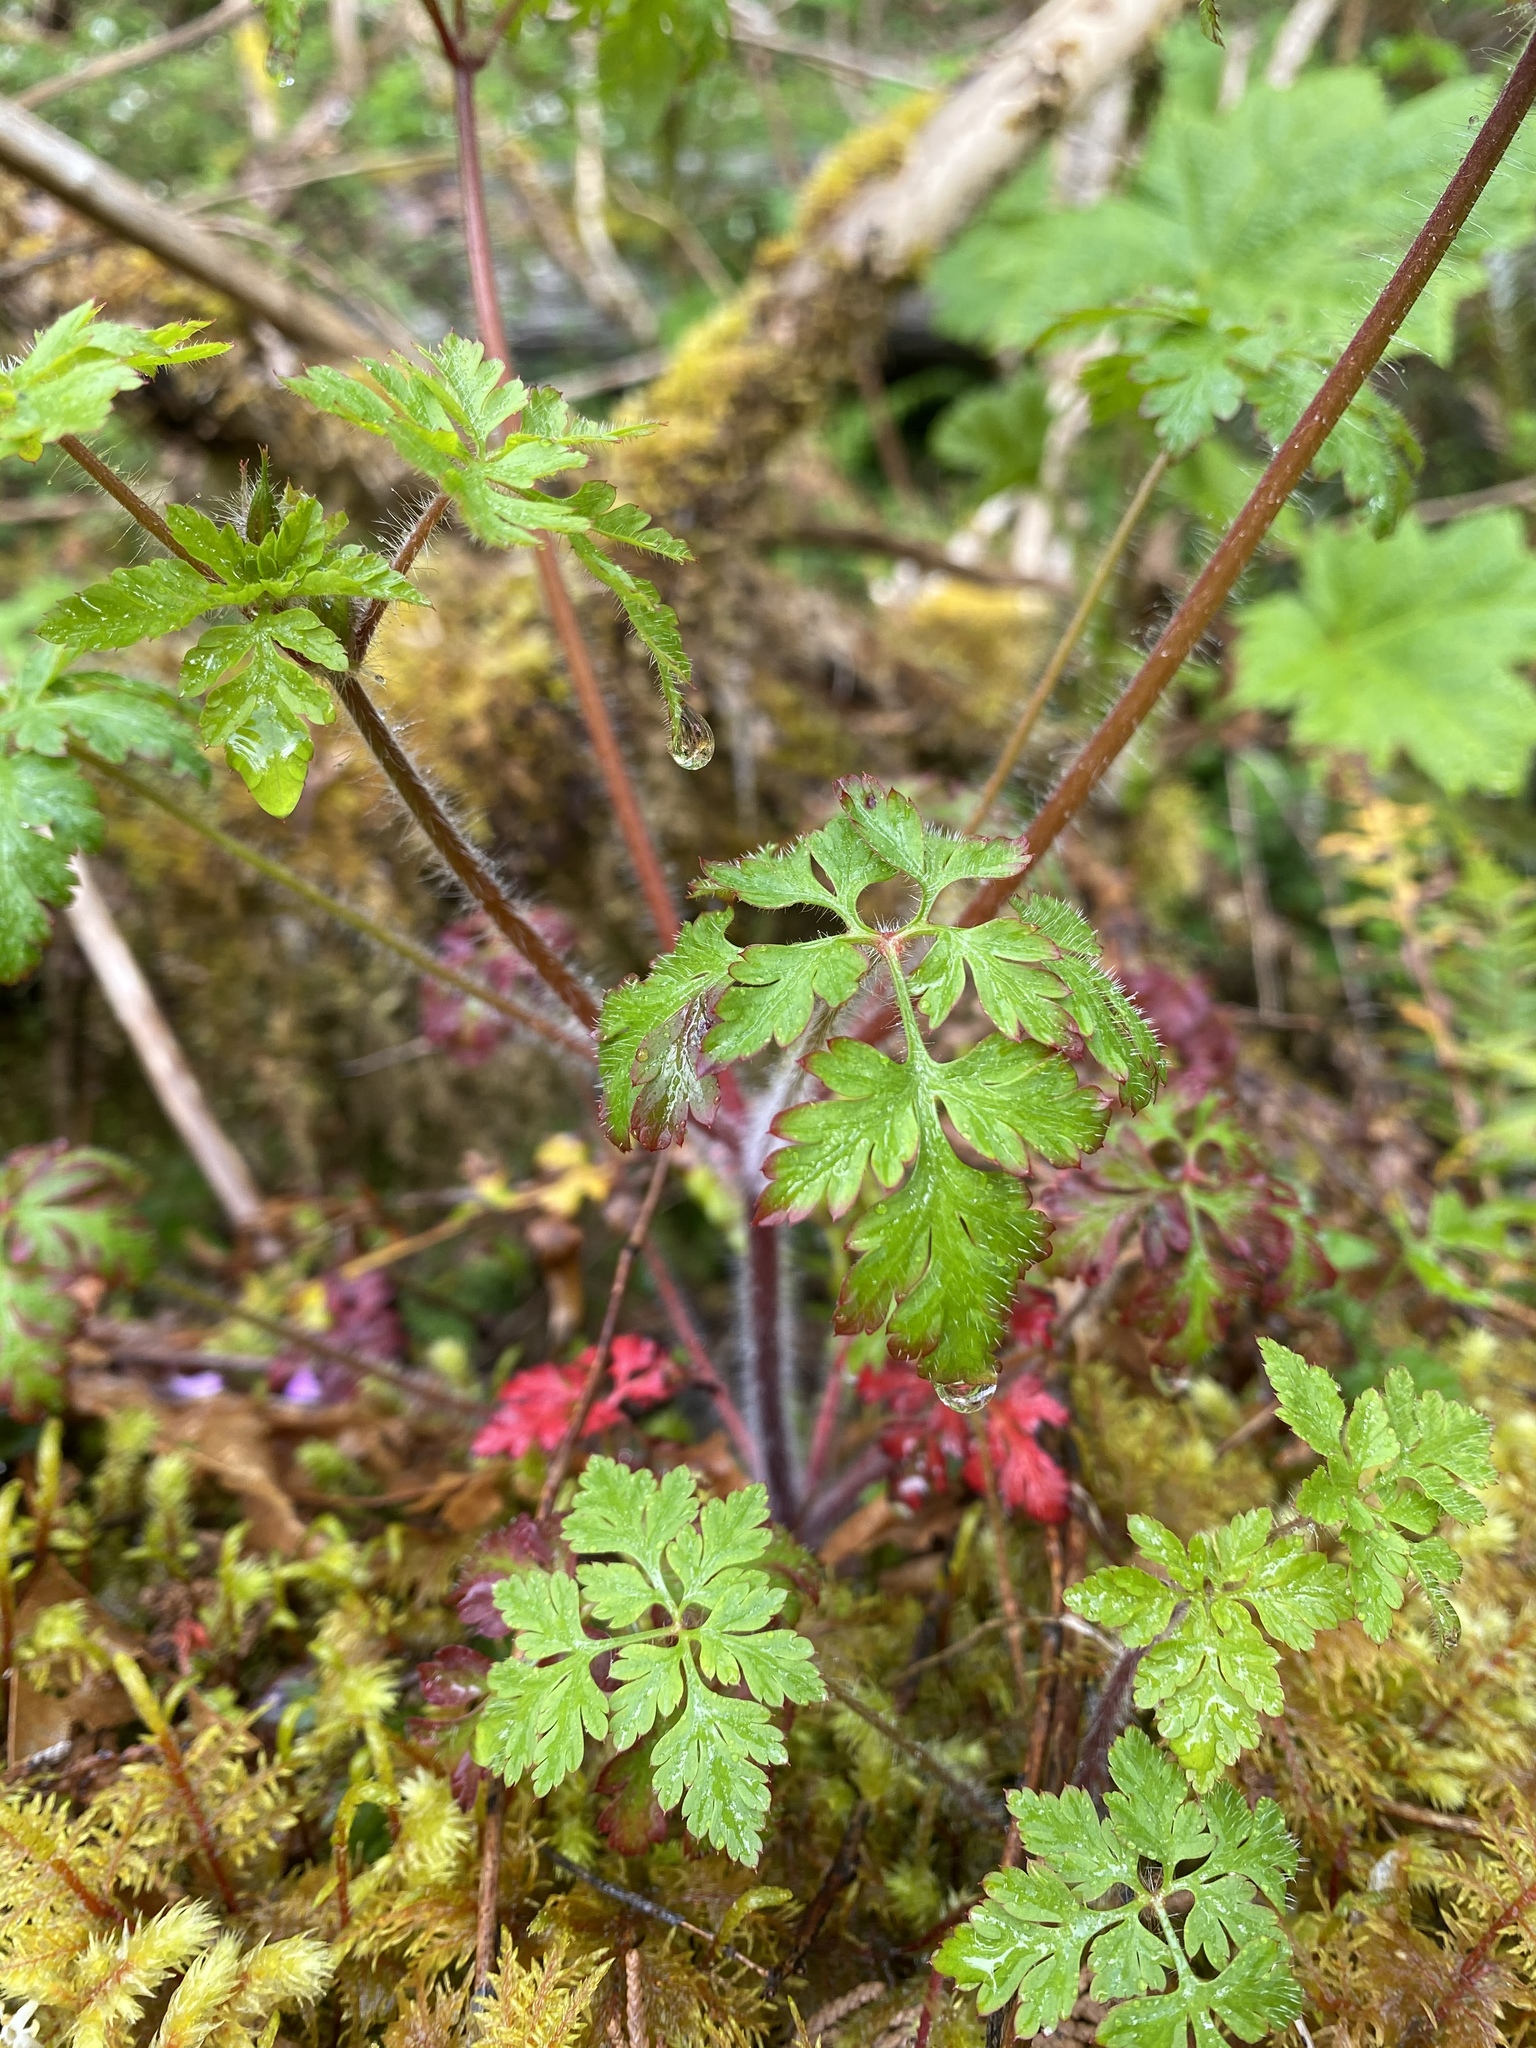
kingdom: Plantae
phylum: Tracheophyta
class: Magnoliopsida
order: Geraniales
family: Geraniaceae
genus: Geranium
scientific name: Geranium robertianum
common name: Herb-robert
